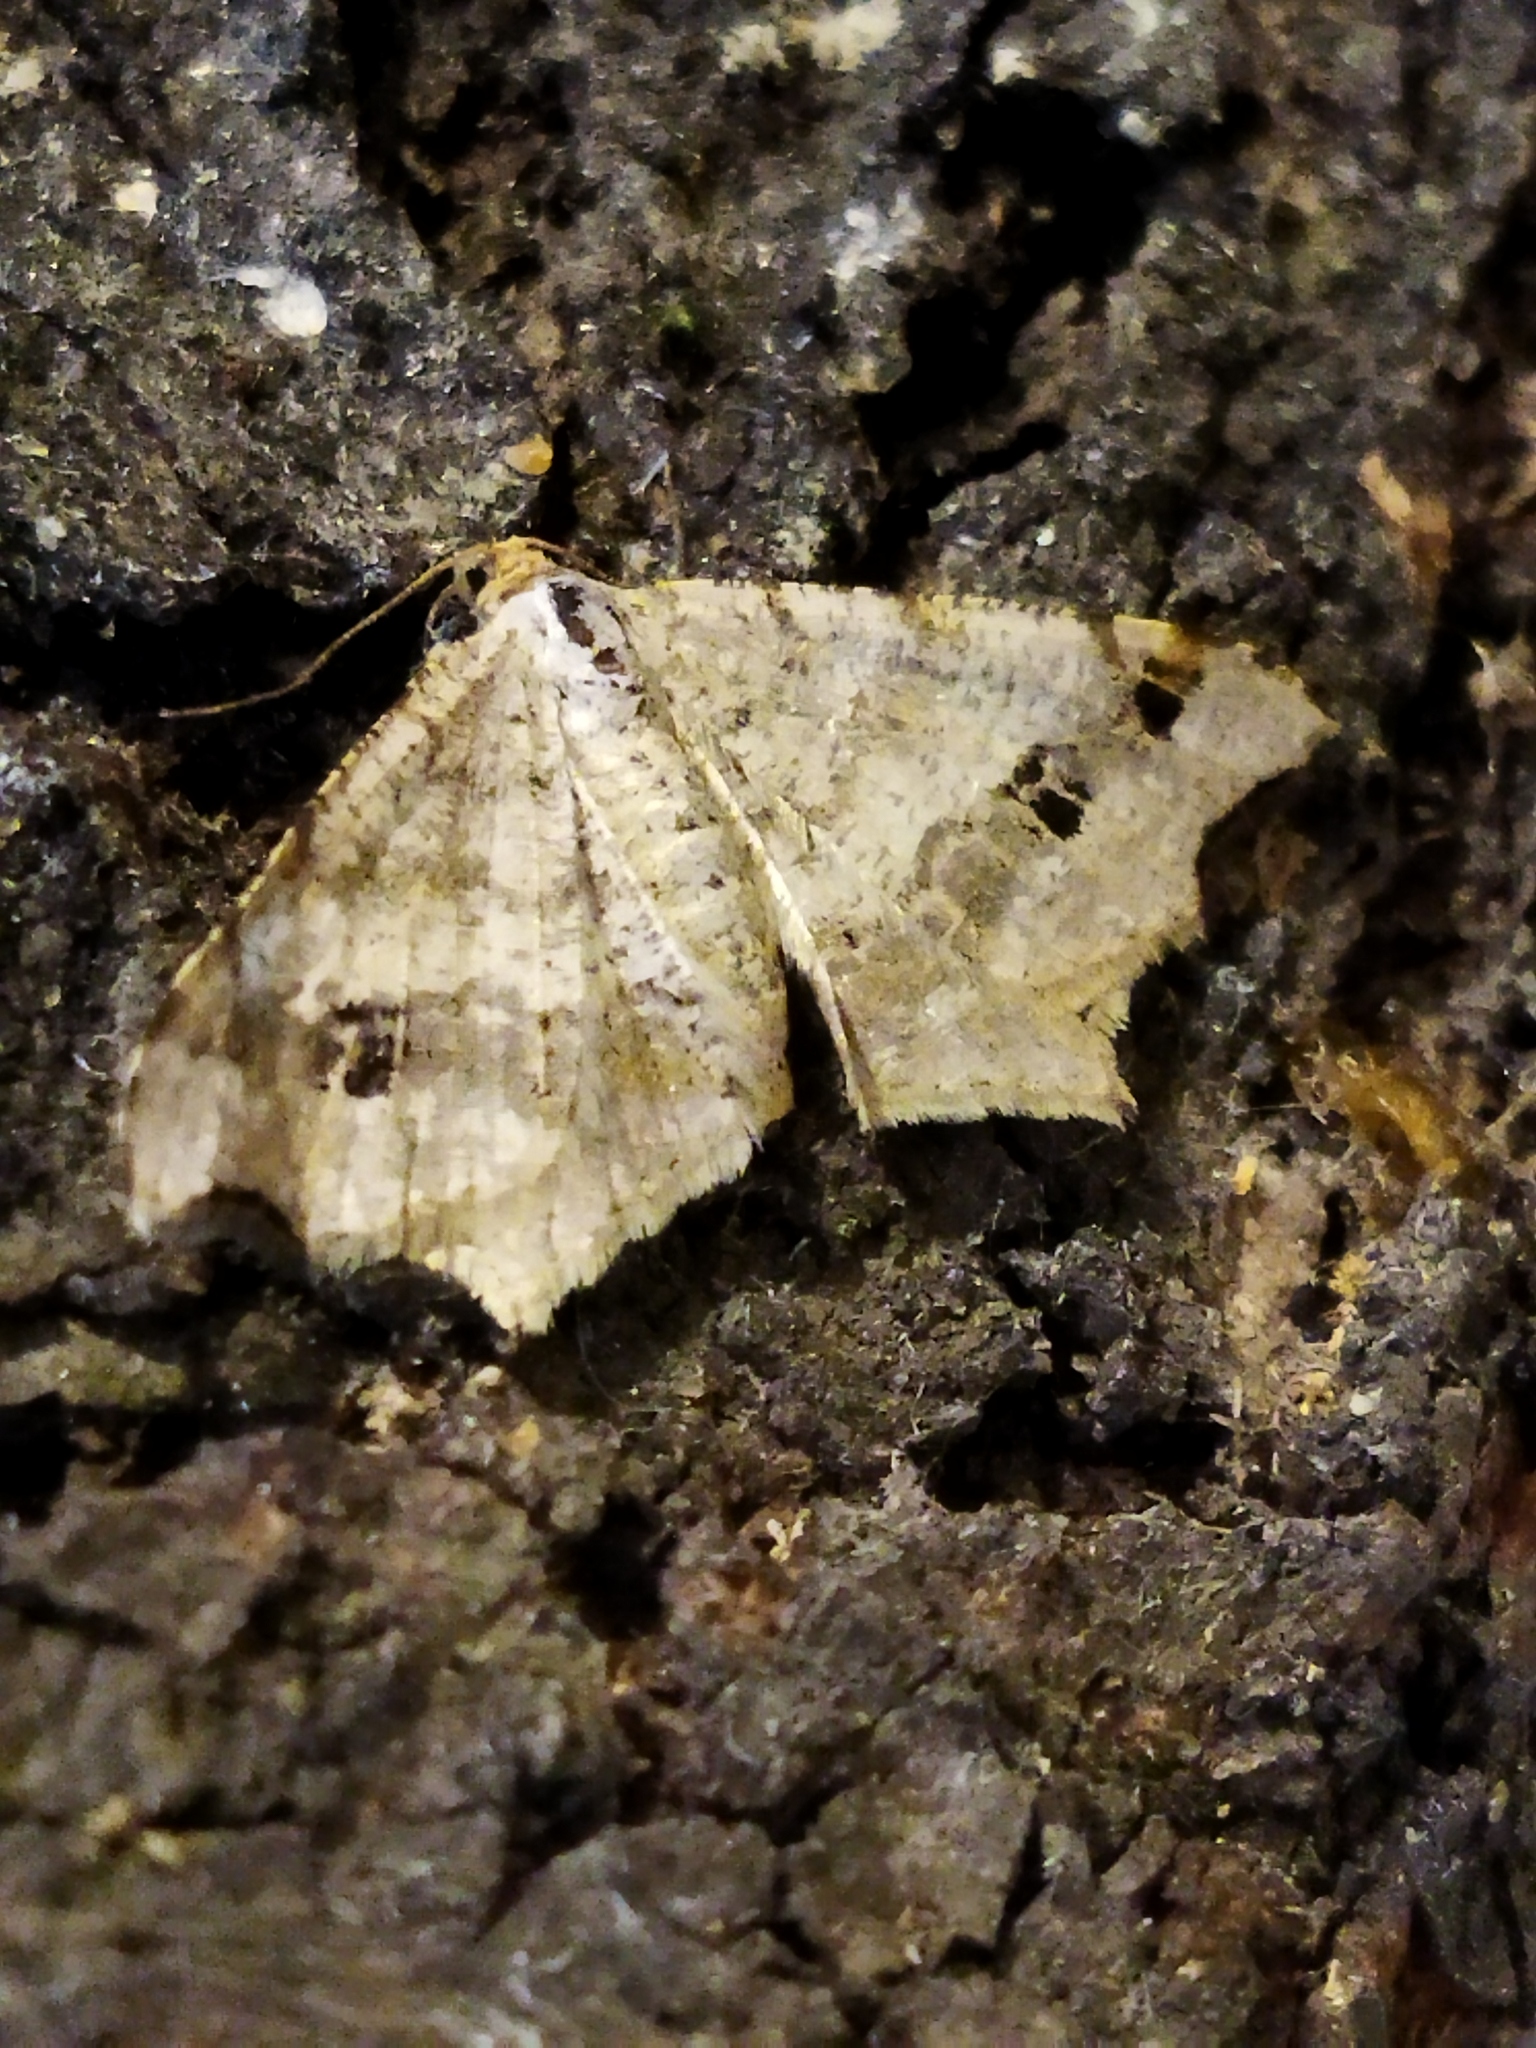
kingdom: Animalia
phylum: Arthropoda
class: Insecta
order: Lepidoptera
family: Geometridae
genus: Macaria
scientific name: Macaria alternata
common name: Sharp-angled peacock
